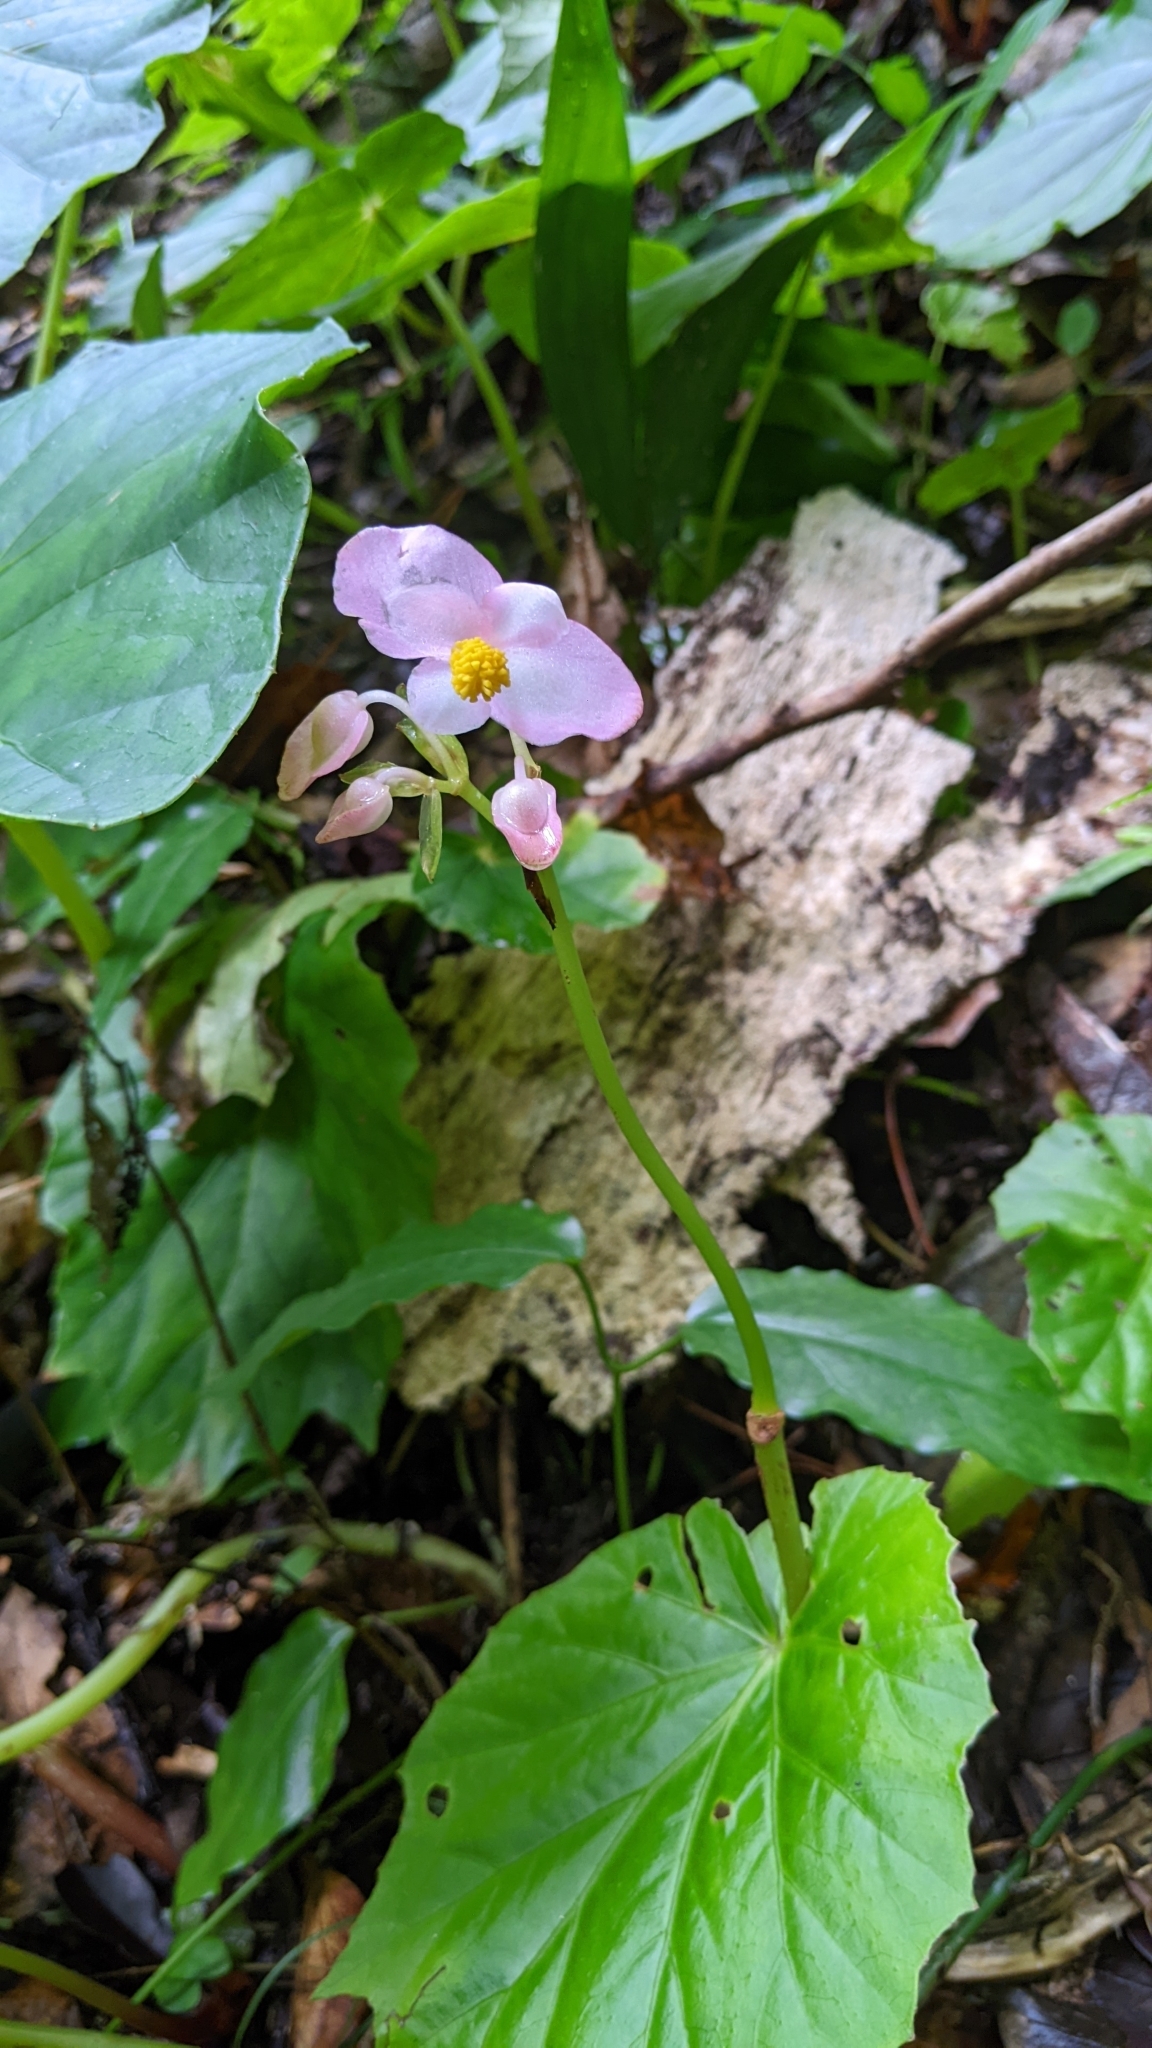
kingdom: Plantae
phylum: Tracheophyta
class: Magnoliopsida
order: Cucurbitales
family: Begoniaceae
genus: Begonia
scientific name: Begonia chitoensis
